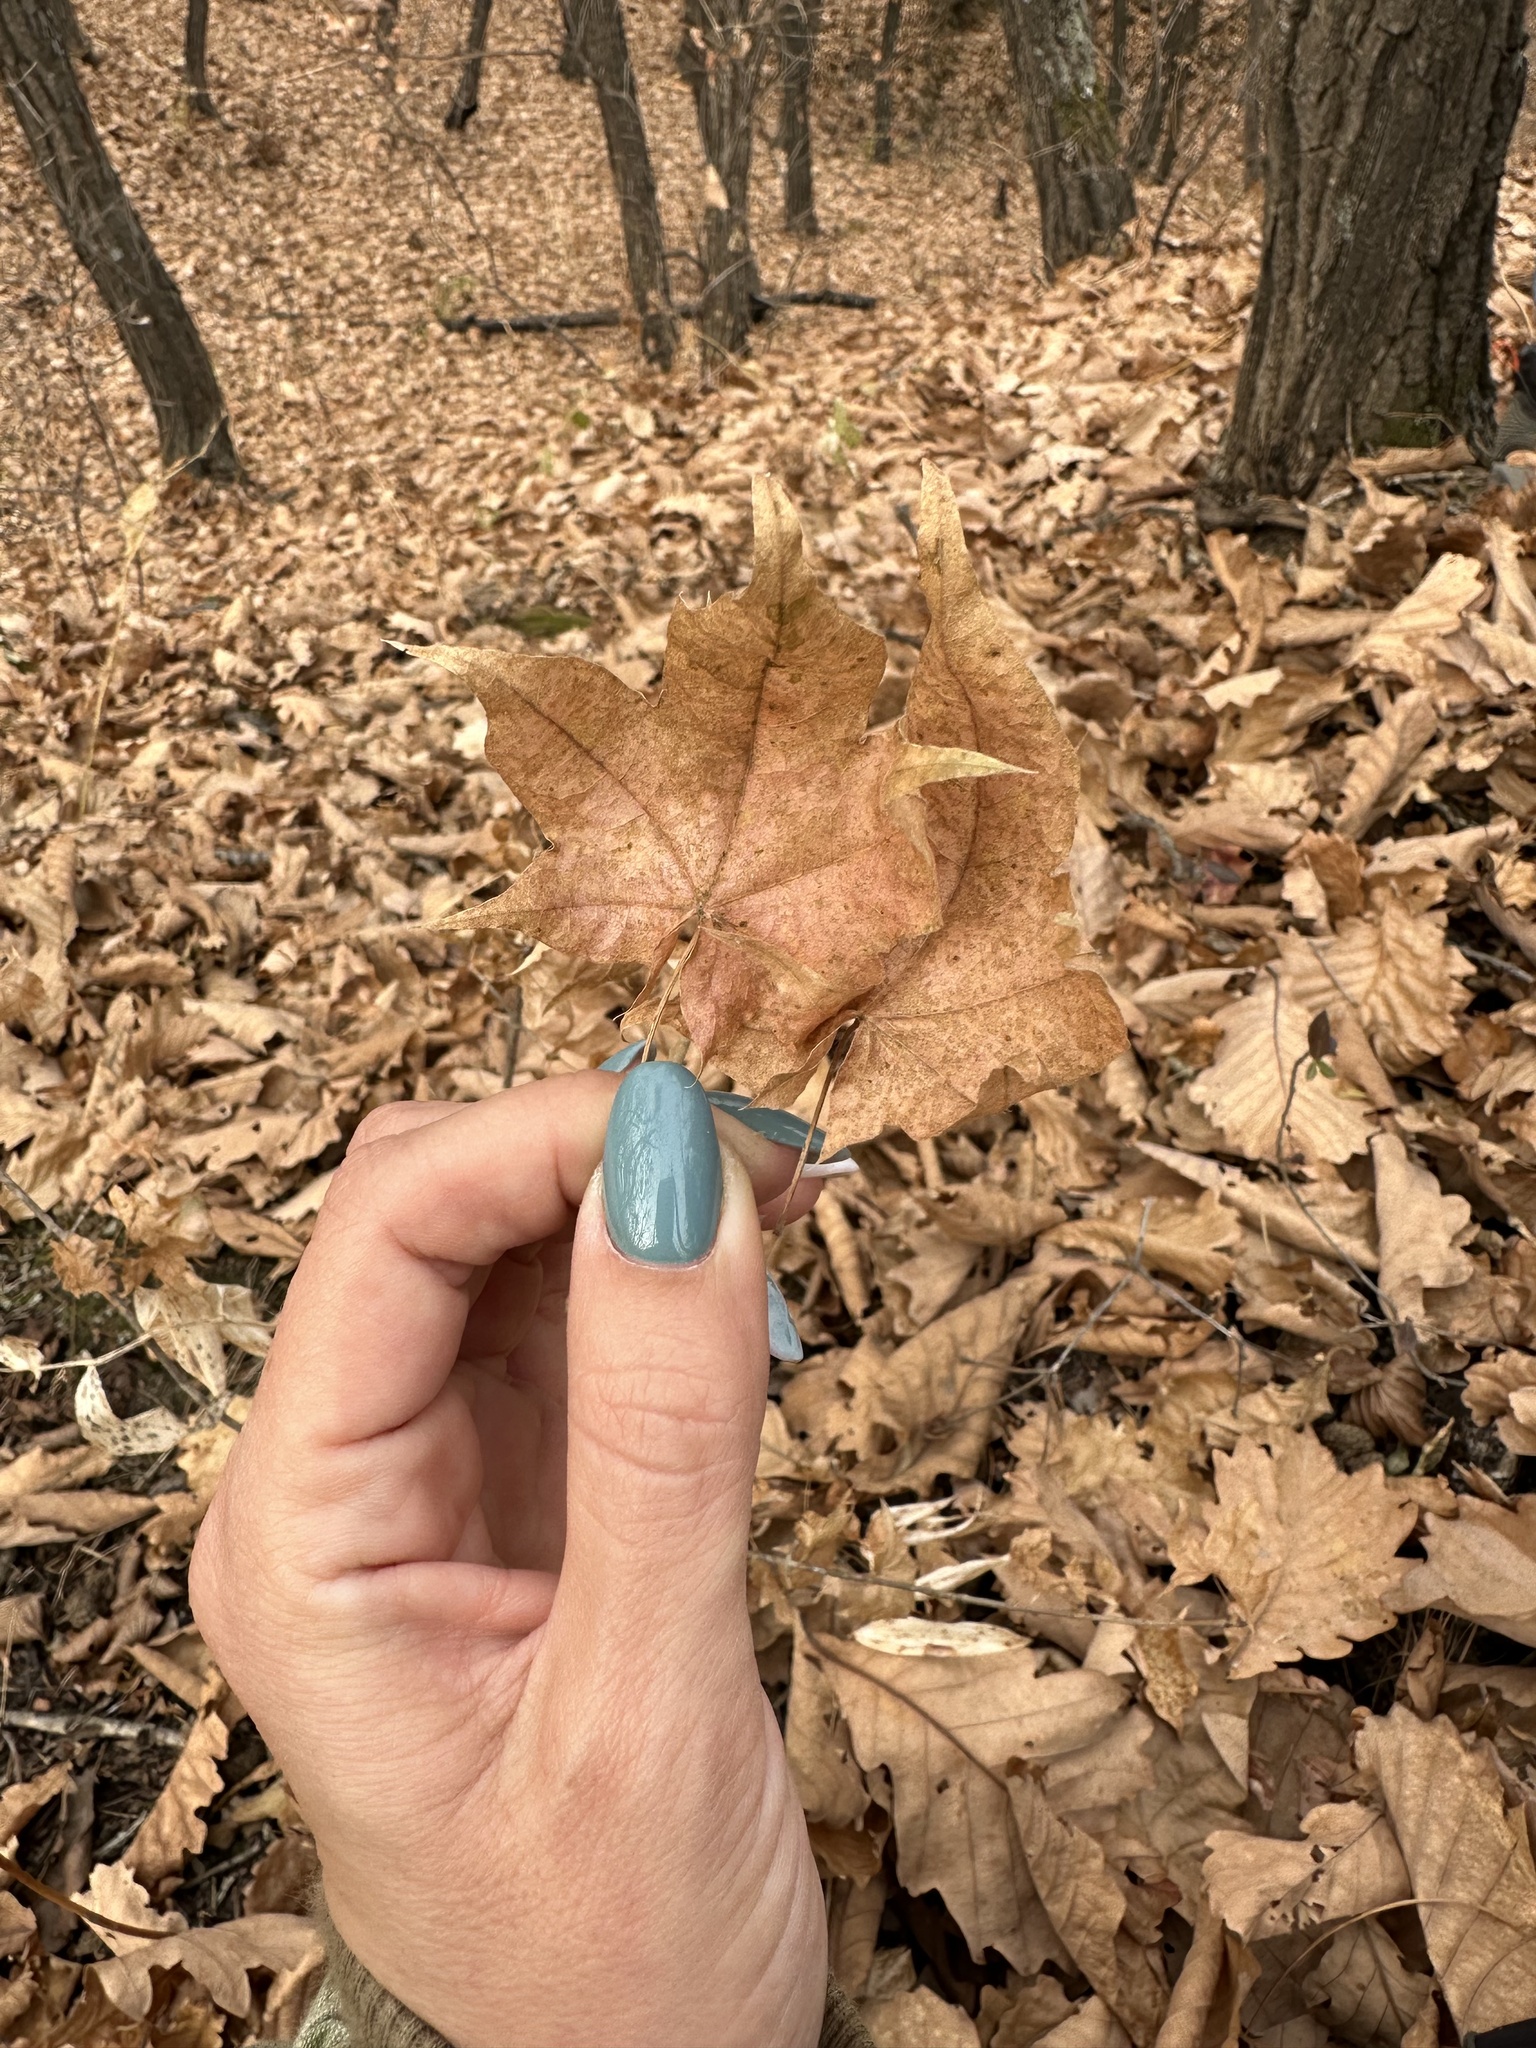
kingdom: Plantae
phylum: Tracheophyta
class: Magnoliopsida
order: Sapindales
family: Sapindaceae
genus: Acer
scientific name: Acer pictum
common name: The painted maple
